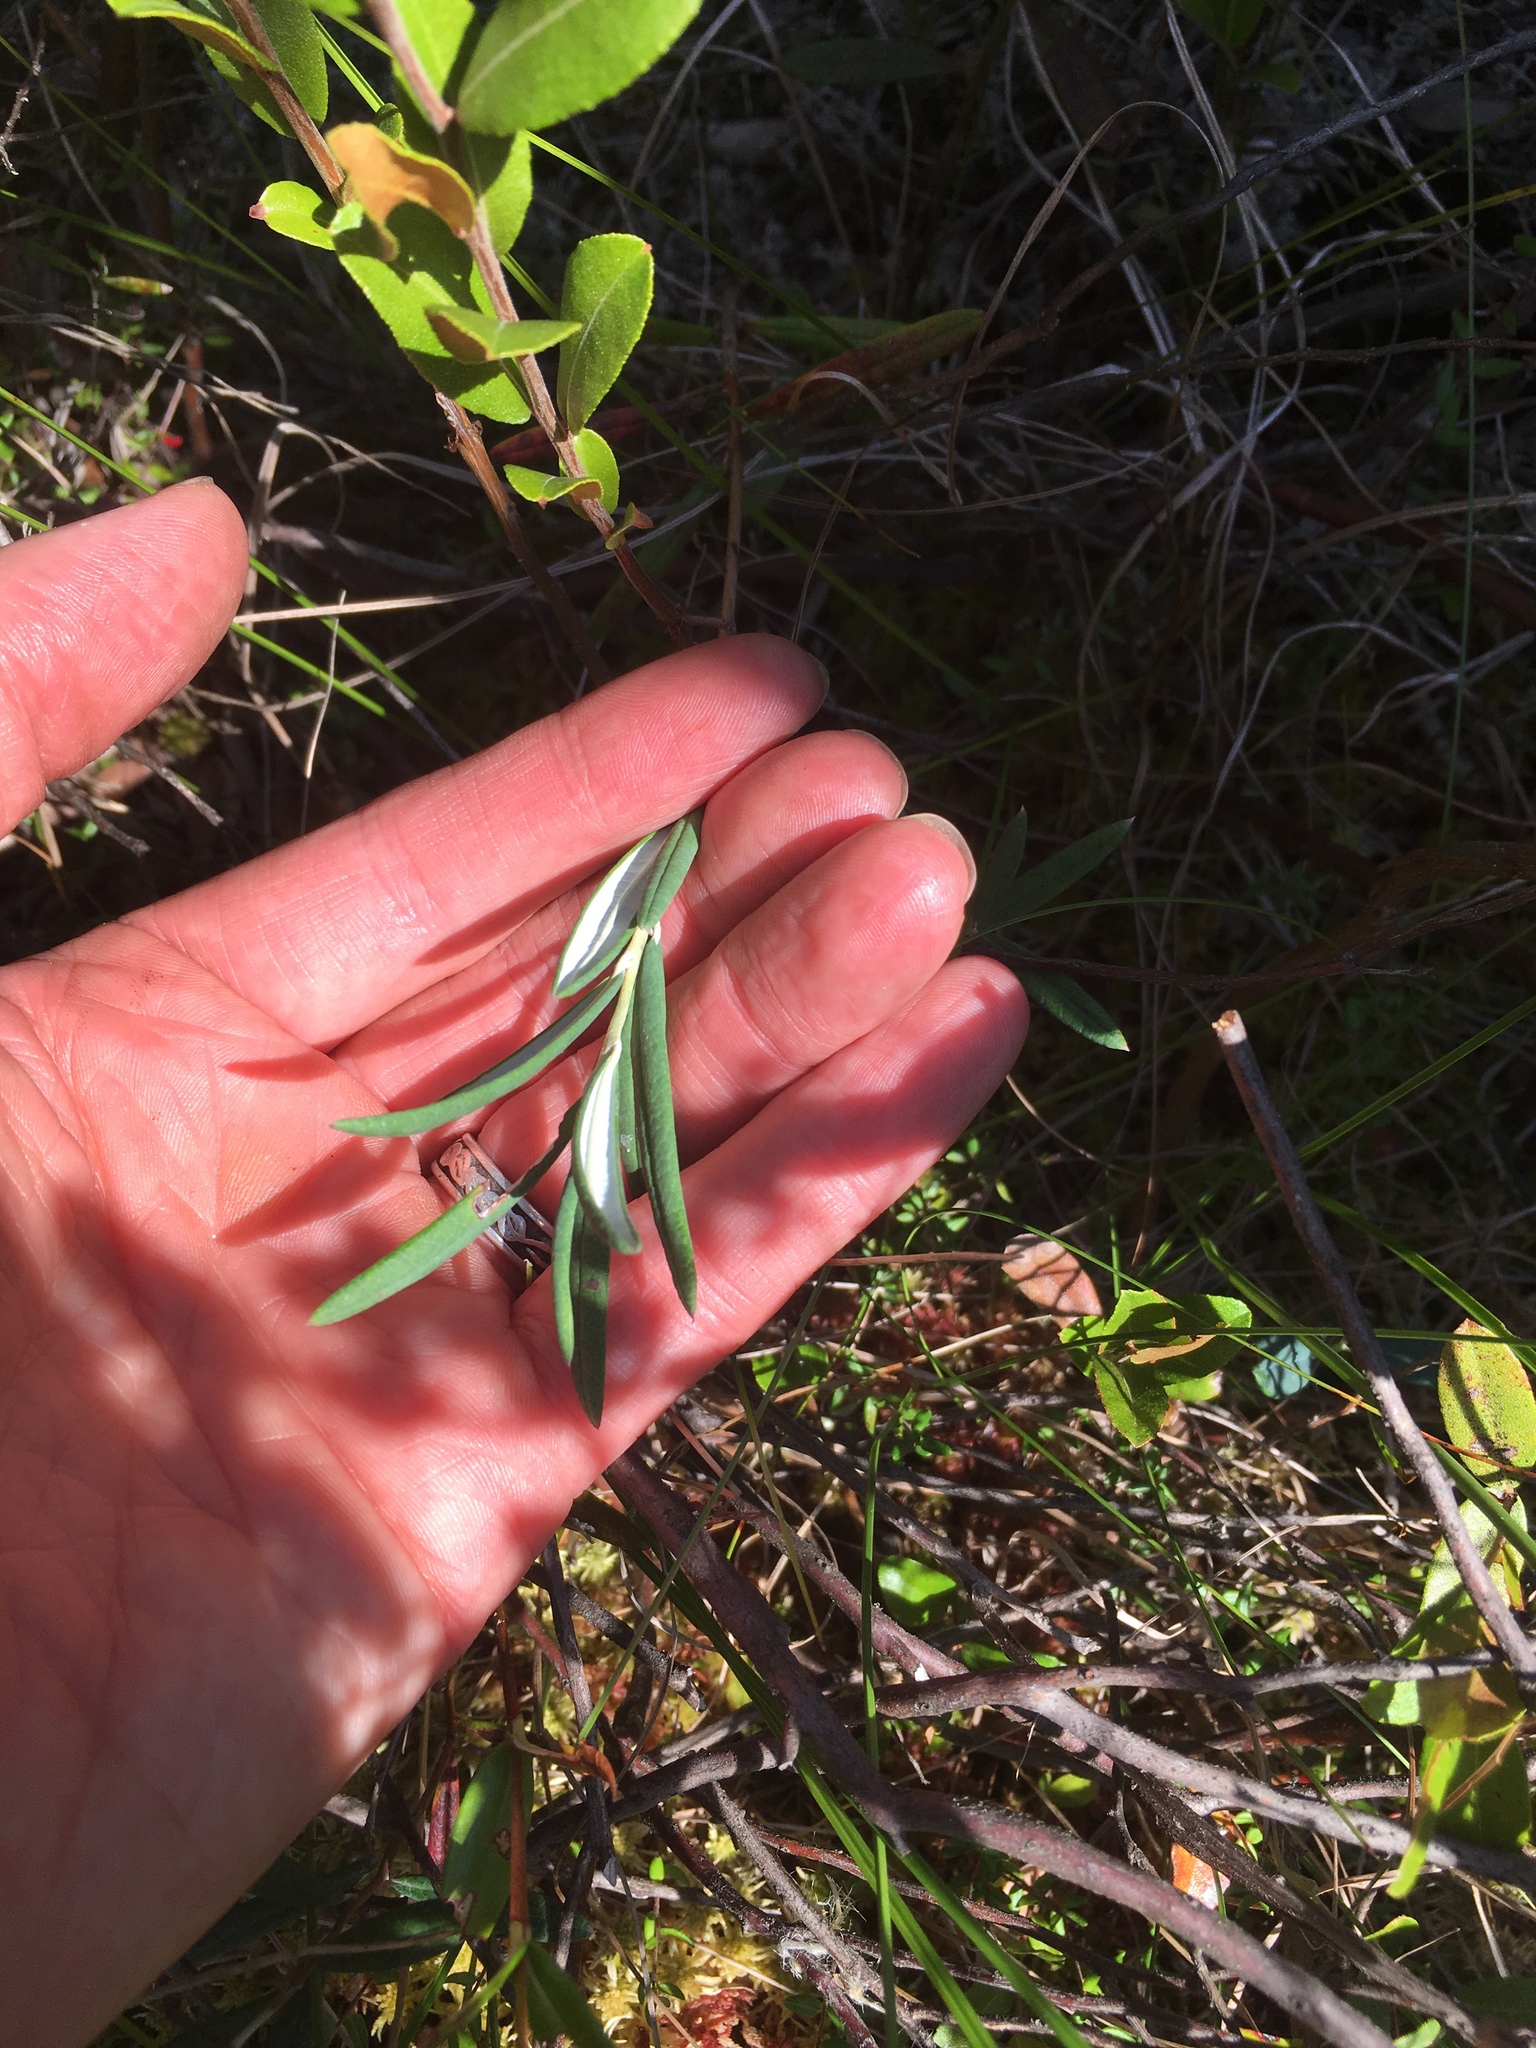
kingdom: Plantae
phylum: Tracheophyta
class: Magnoliopsida
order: Ericales
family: Ericaceae
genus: Andromeda
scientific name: Andromeda polifolia
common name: Bog-rosemary
